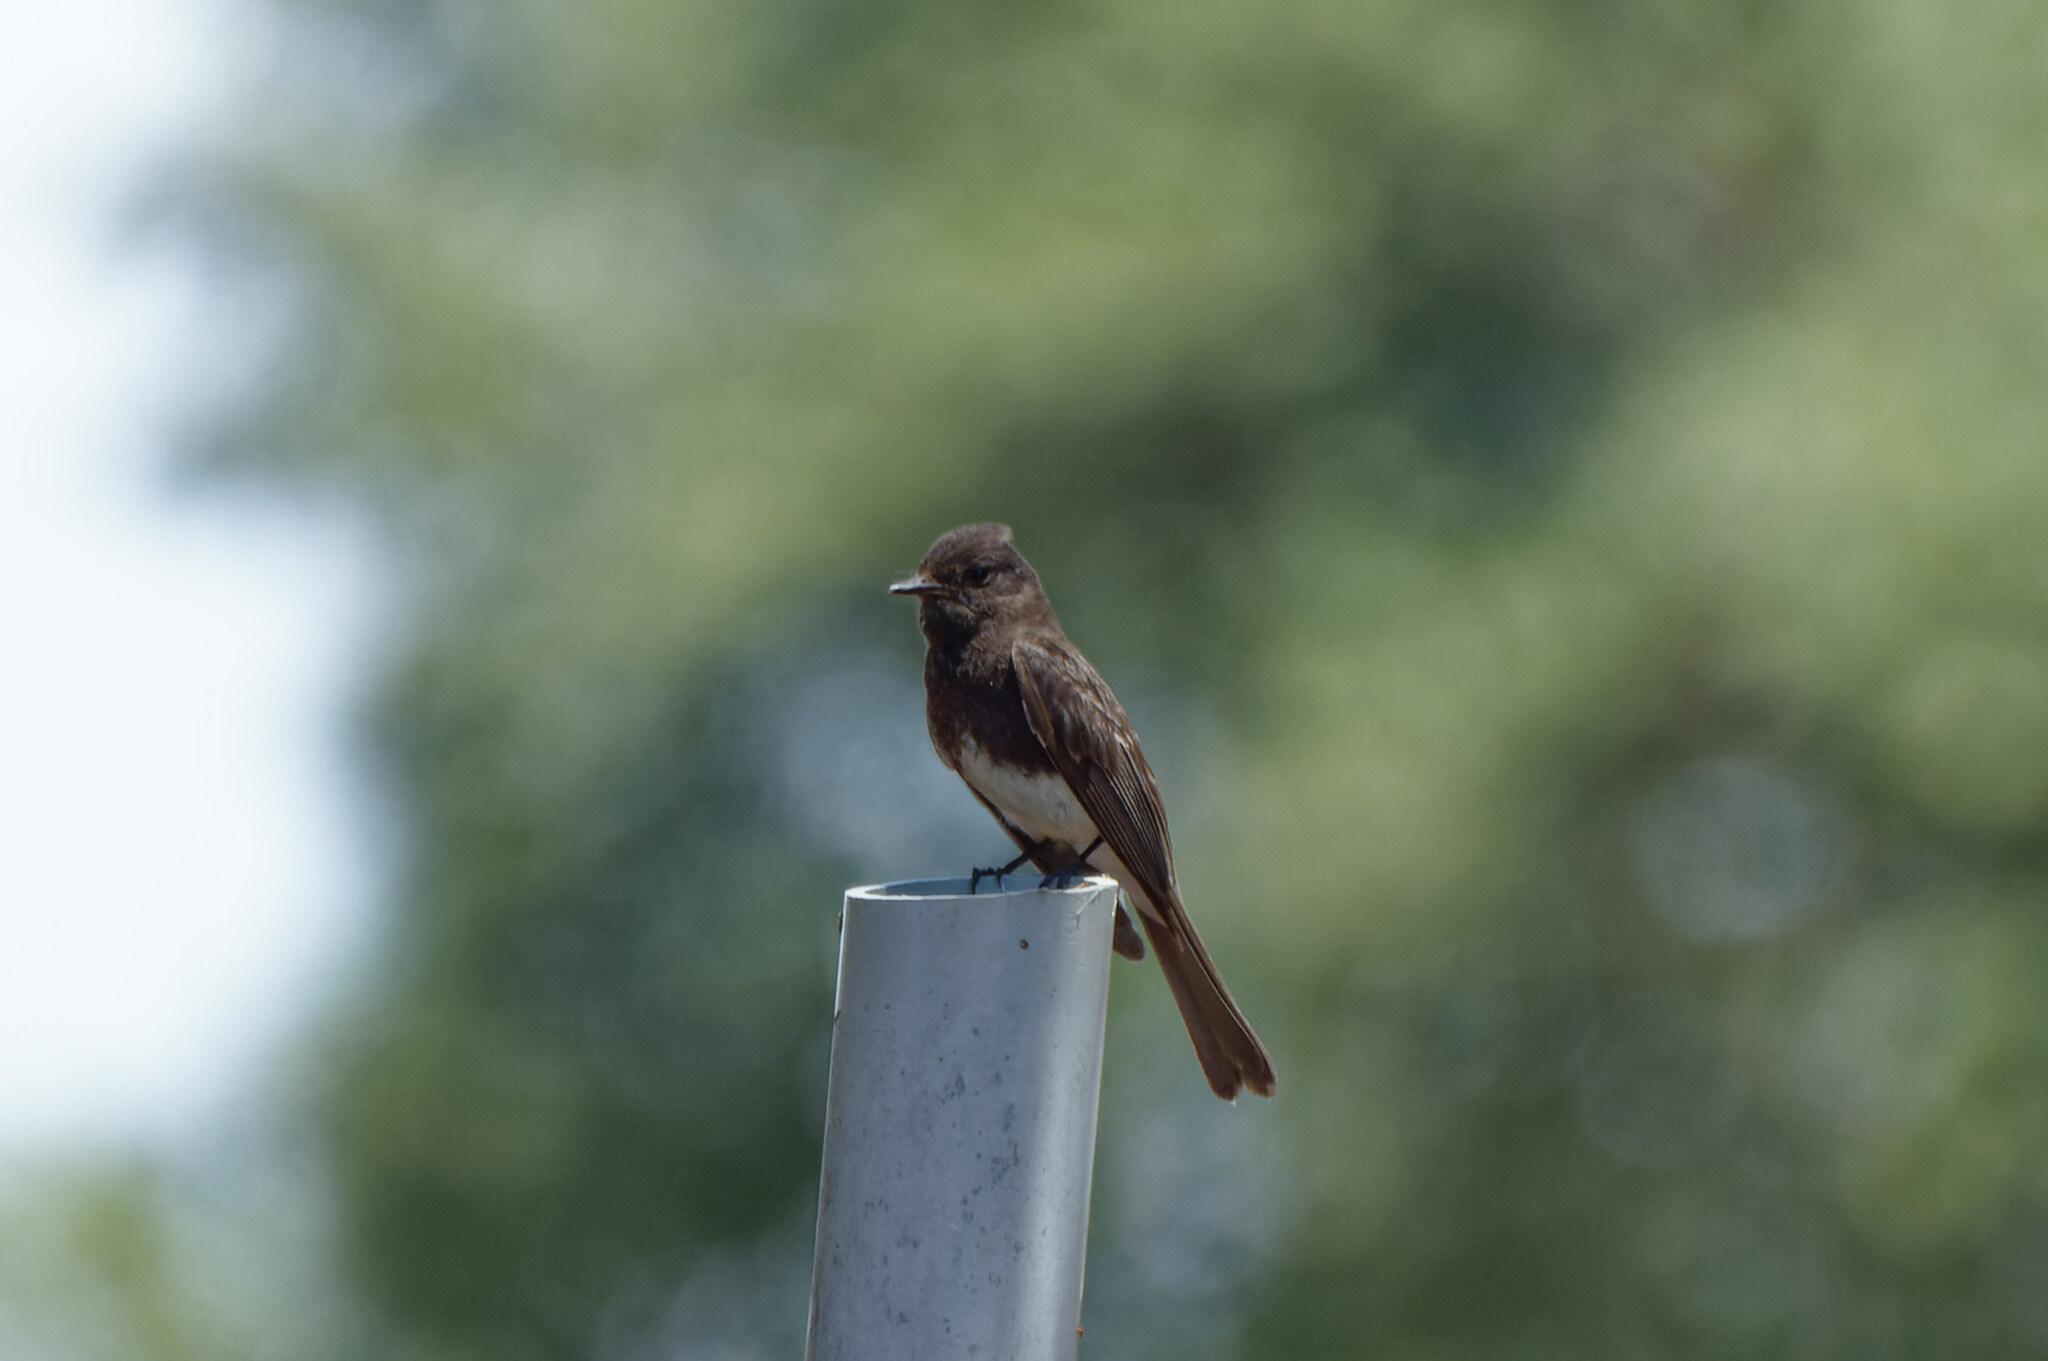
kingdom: Animalia
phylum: Chordata
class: Aves
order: Passeriformes
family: Tyrannidae
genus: Sayornis
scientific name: Sayornis nigricans
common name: Black phoebe
